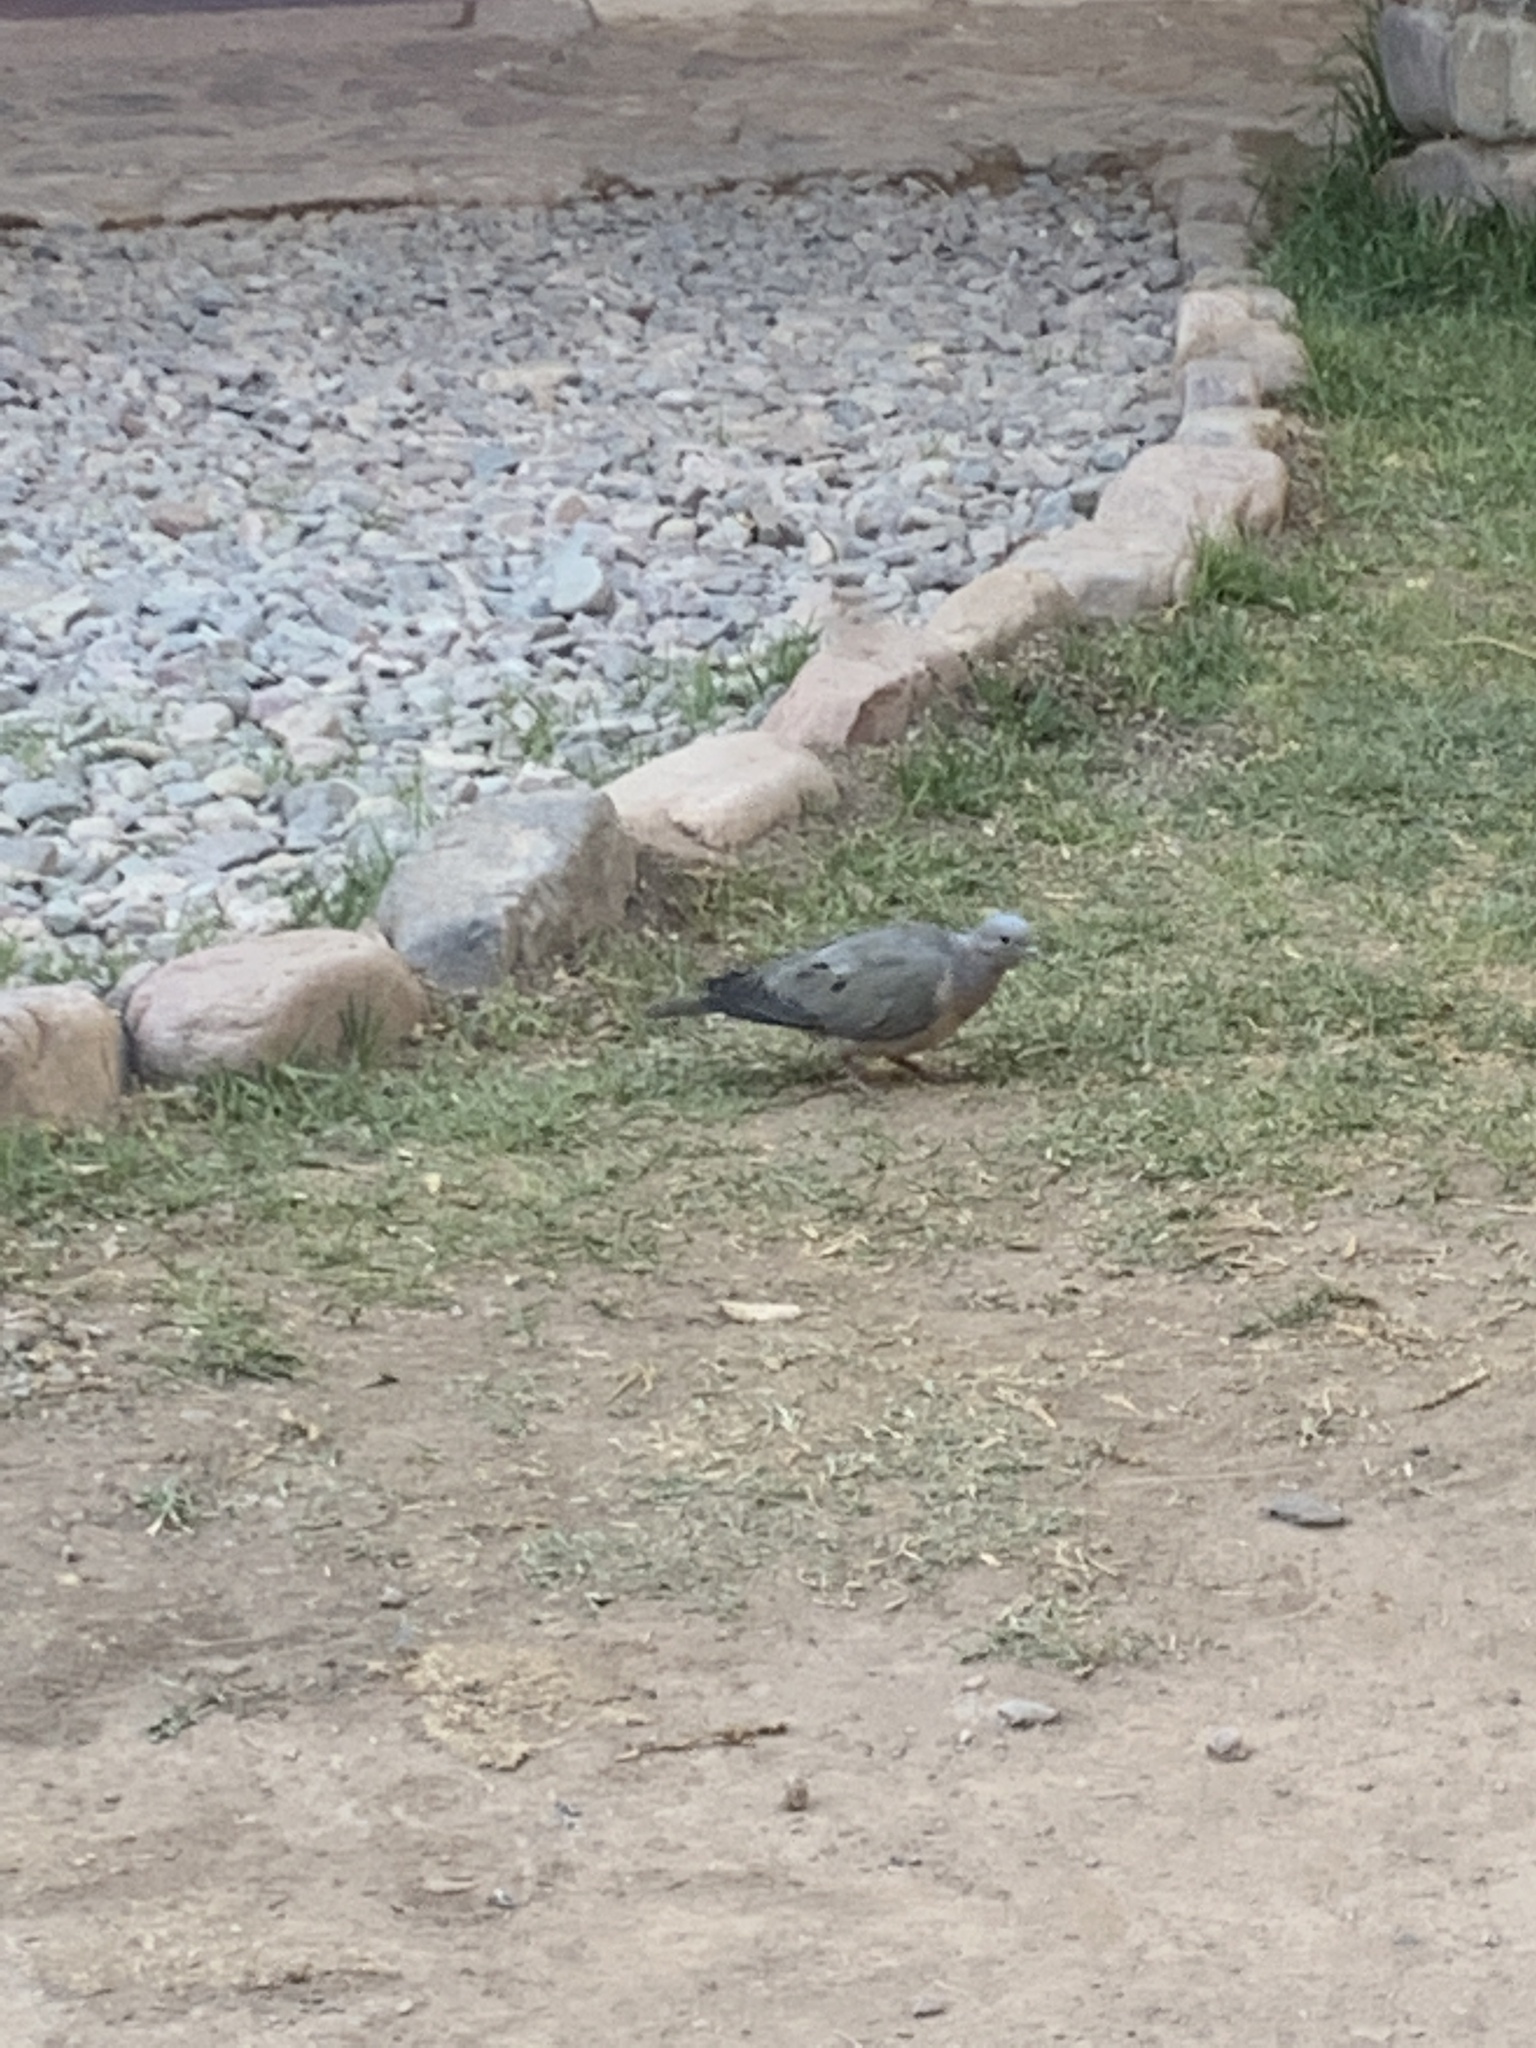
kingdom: Animalia
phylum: Chordata
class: Aves
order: Columbiformes
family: Columbidae
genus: Zenaida
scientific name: Zenaida auriculata
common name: Eared dove
